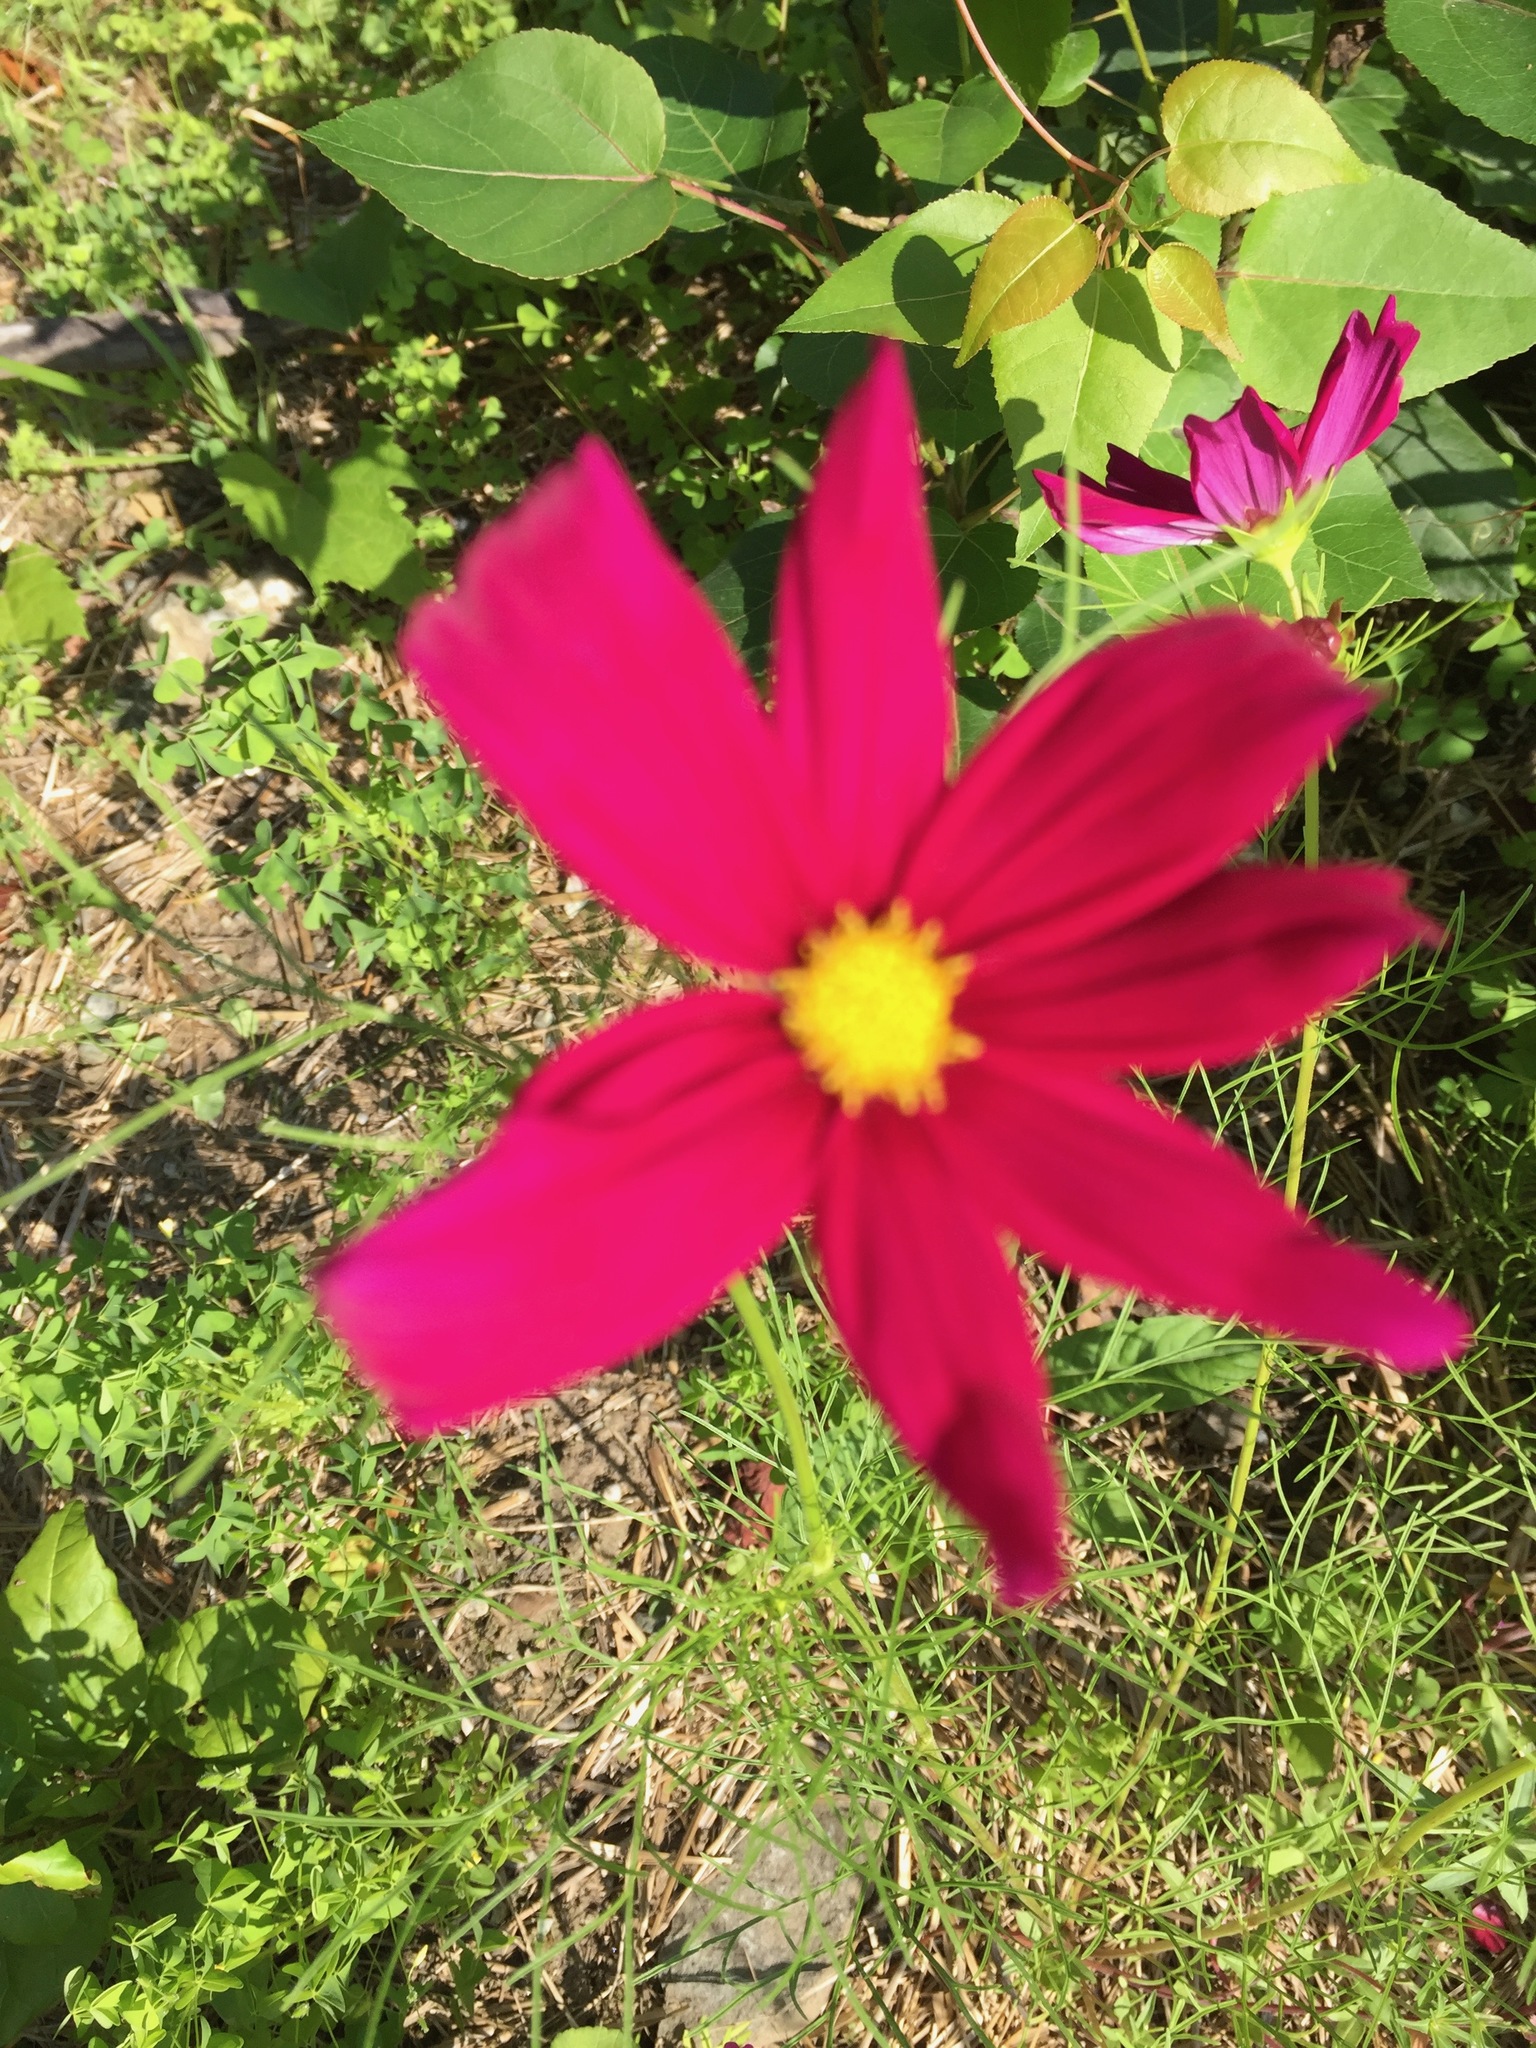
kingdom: Plantae
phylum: Tracheophyta
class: Magnoliopsida
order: Asterales
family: Asteraceae
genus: Cosmos
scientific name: Cosmos bipinnatus
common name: Garden cosmos
